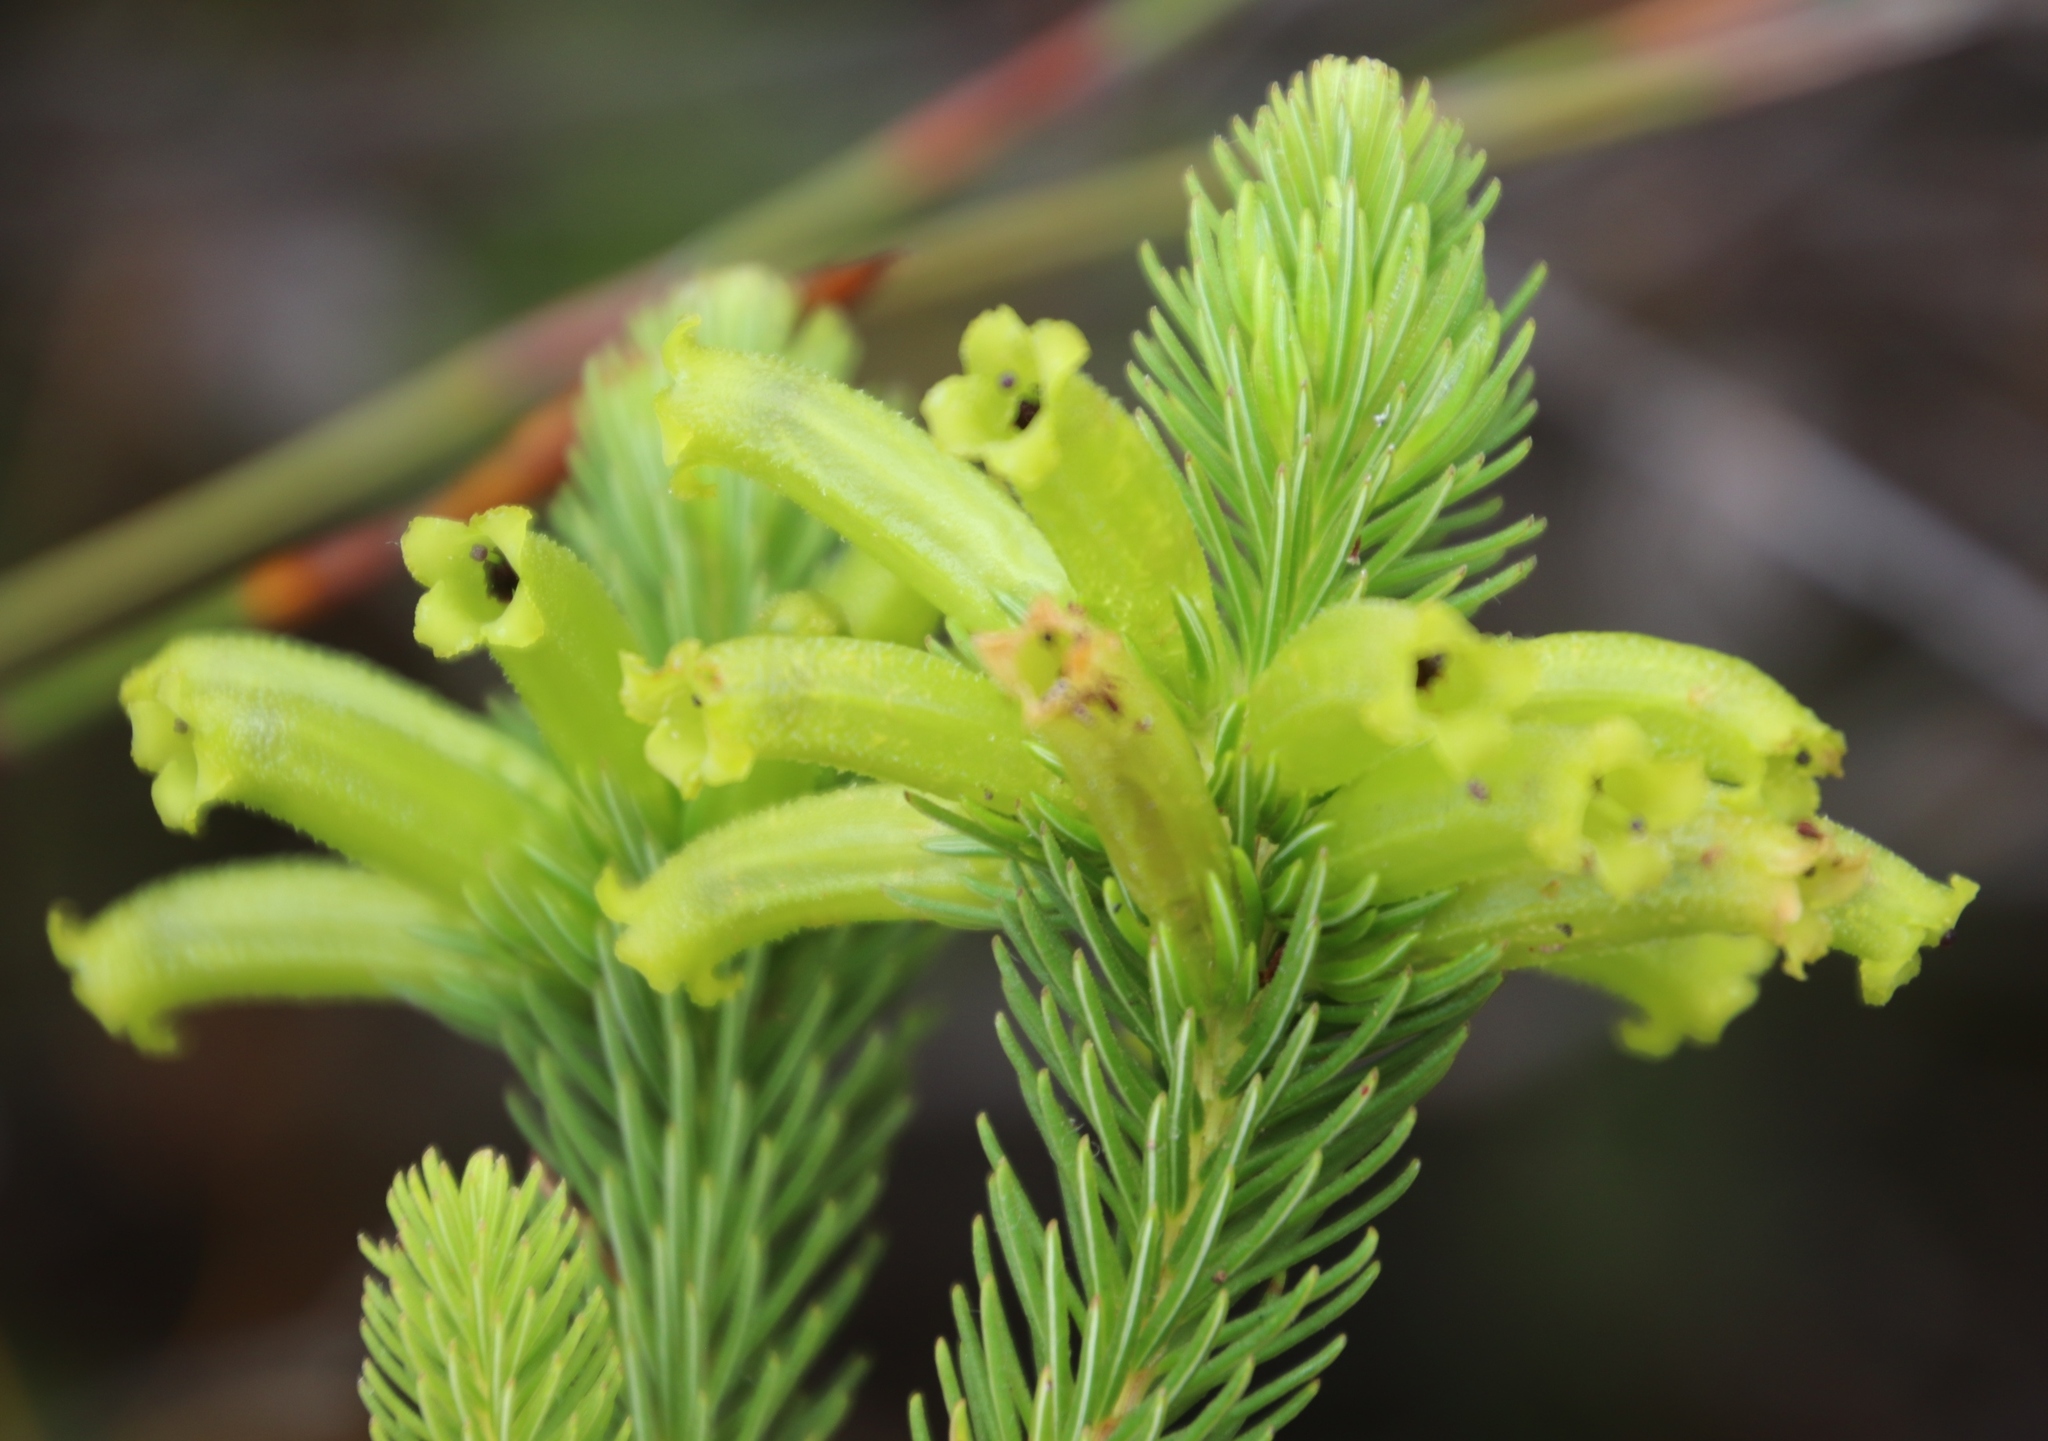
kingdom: Plantae
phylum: Tracheophyta
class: Magnoliopsida
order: Ericales
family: Ericaceae
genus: Erica
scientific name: Erica viscaria
